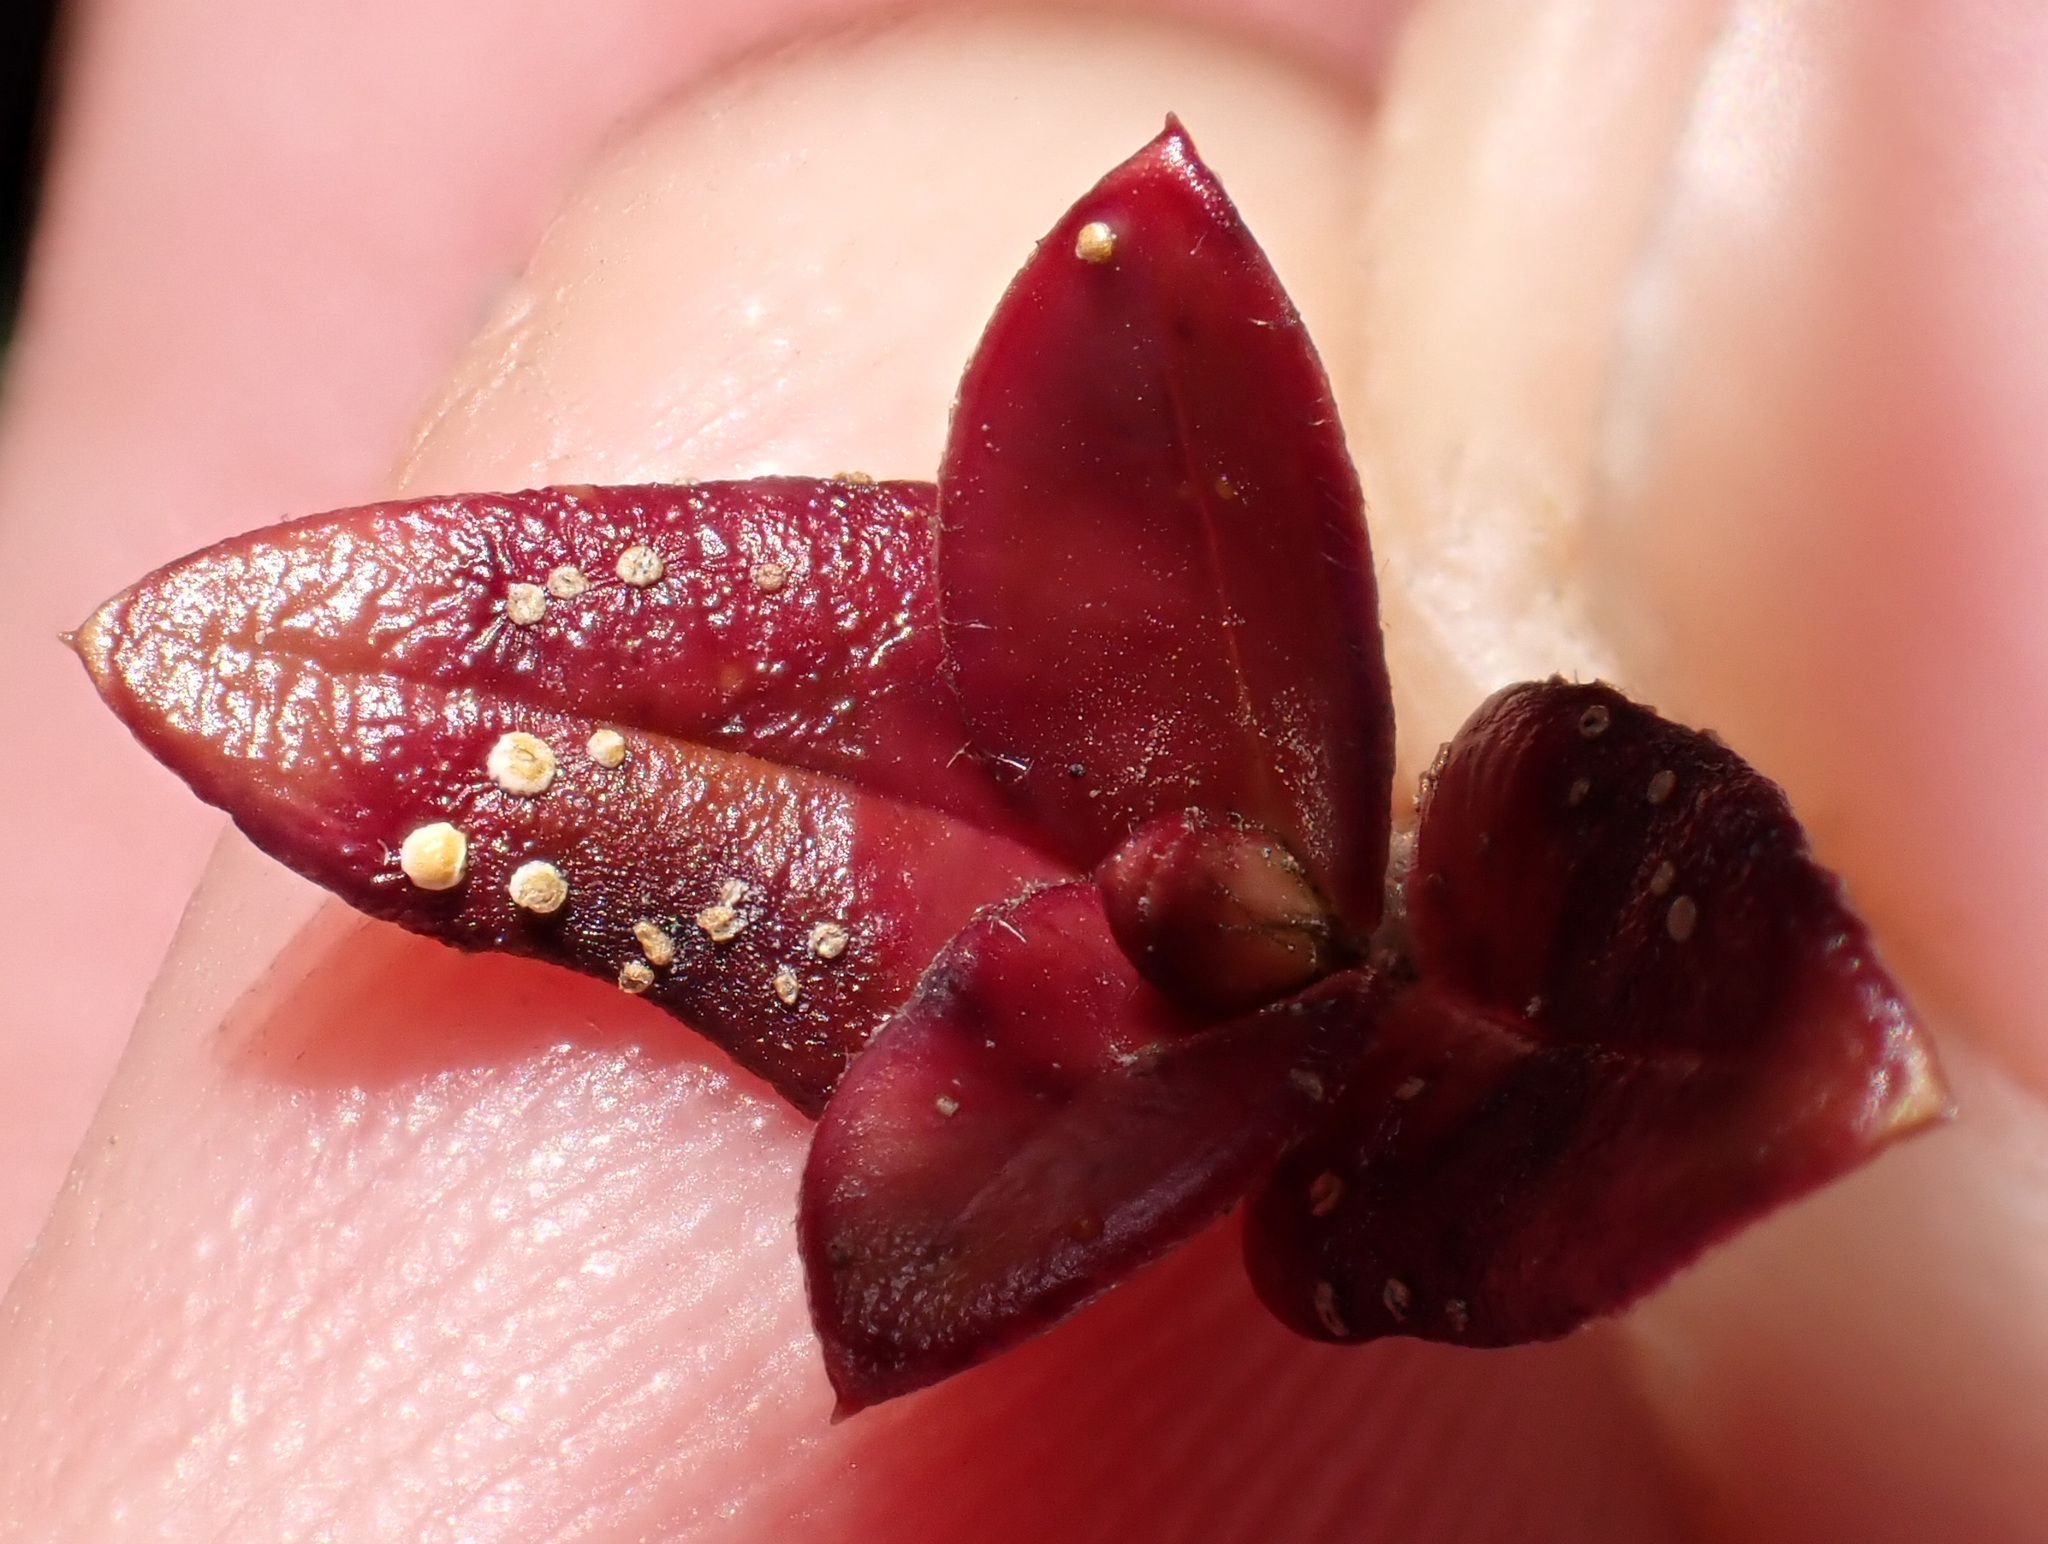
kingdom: Fungi
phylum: Basidiomycota
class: Pucciniomycetes
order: Pucciniales
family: Sphaerophragmiaceae
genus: Austropuccinia
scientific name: Austropuccinia psidii
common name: Myrtle rust
